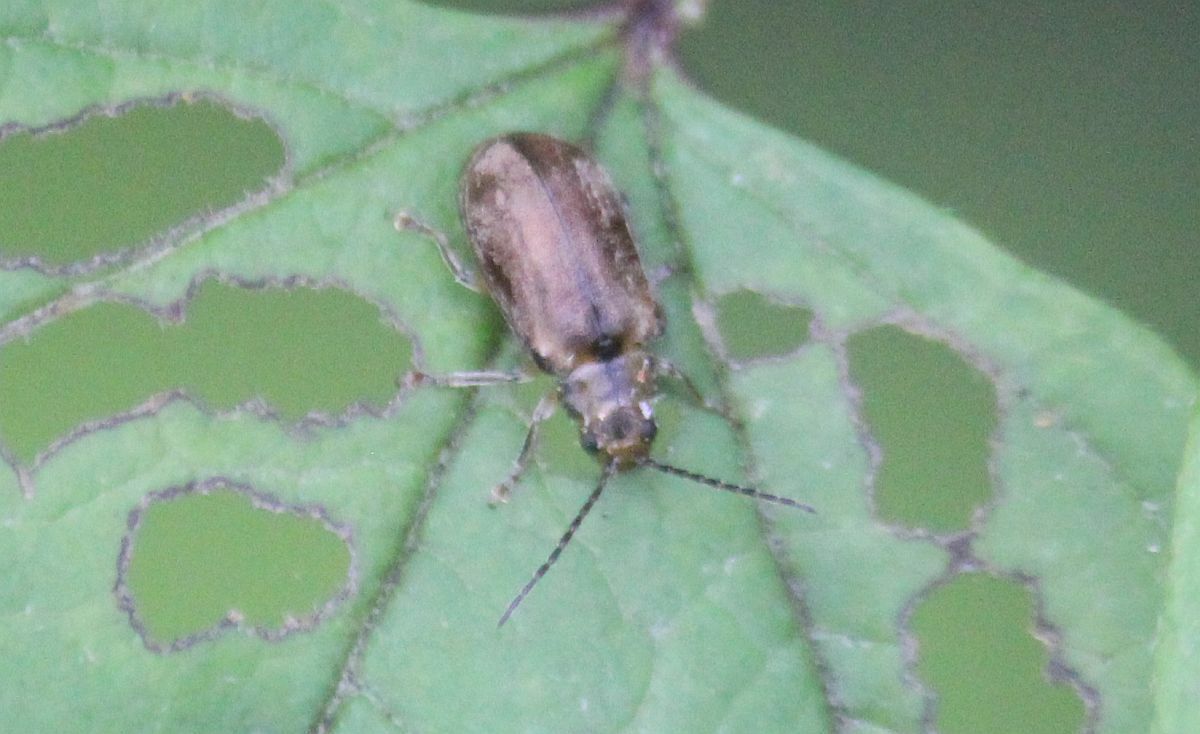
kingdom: Animalia
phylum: Arthropoda
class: Insecta
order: Coleoptera
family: Chrysomelidae
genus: Pyrrhalta
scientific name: Pyrrhalta viburni
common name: Guelder-rose leaf beetle
